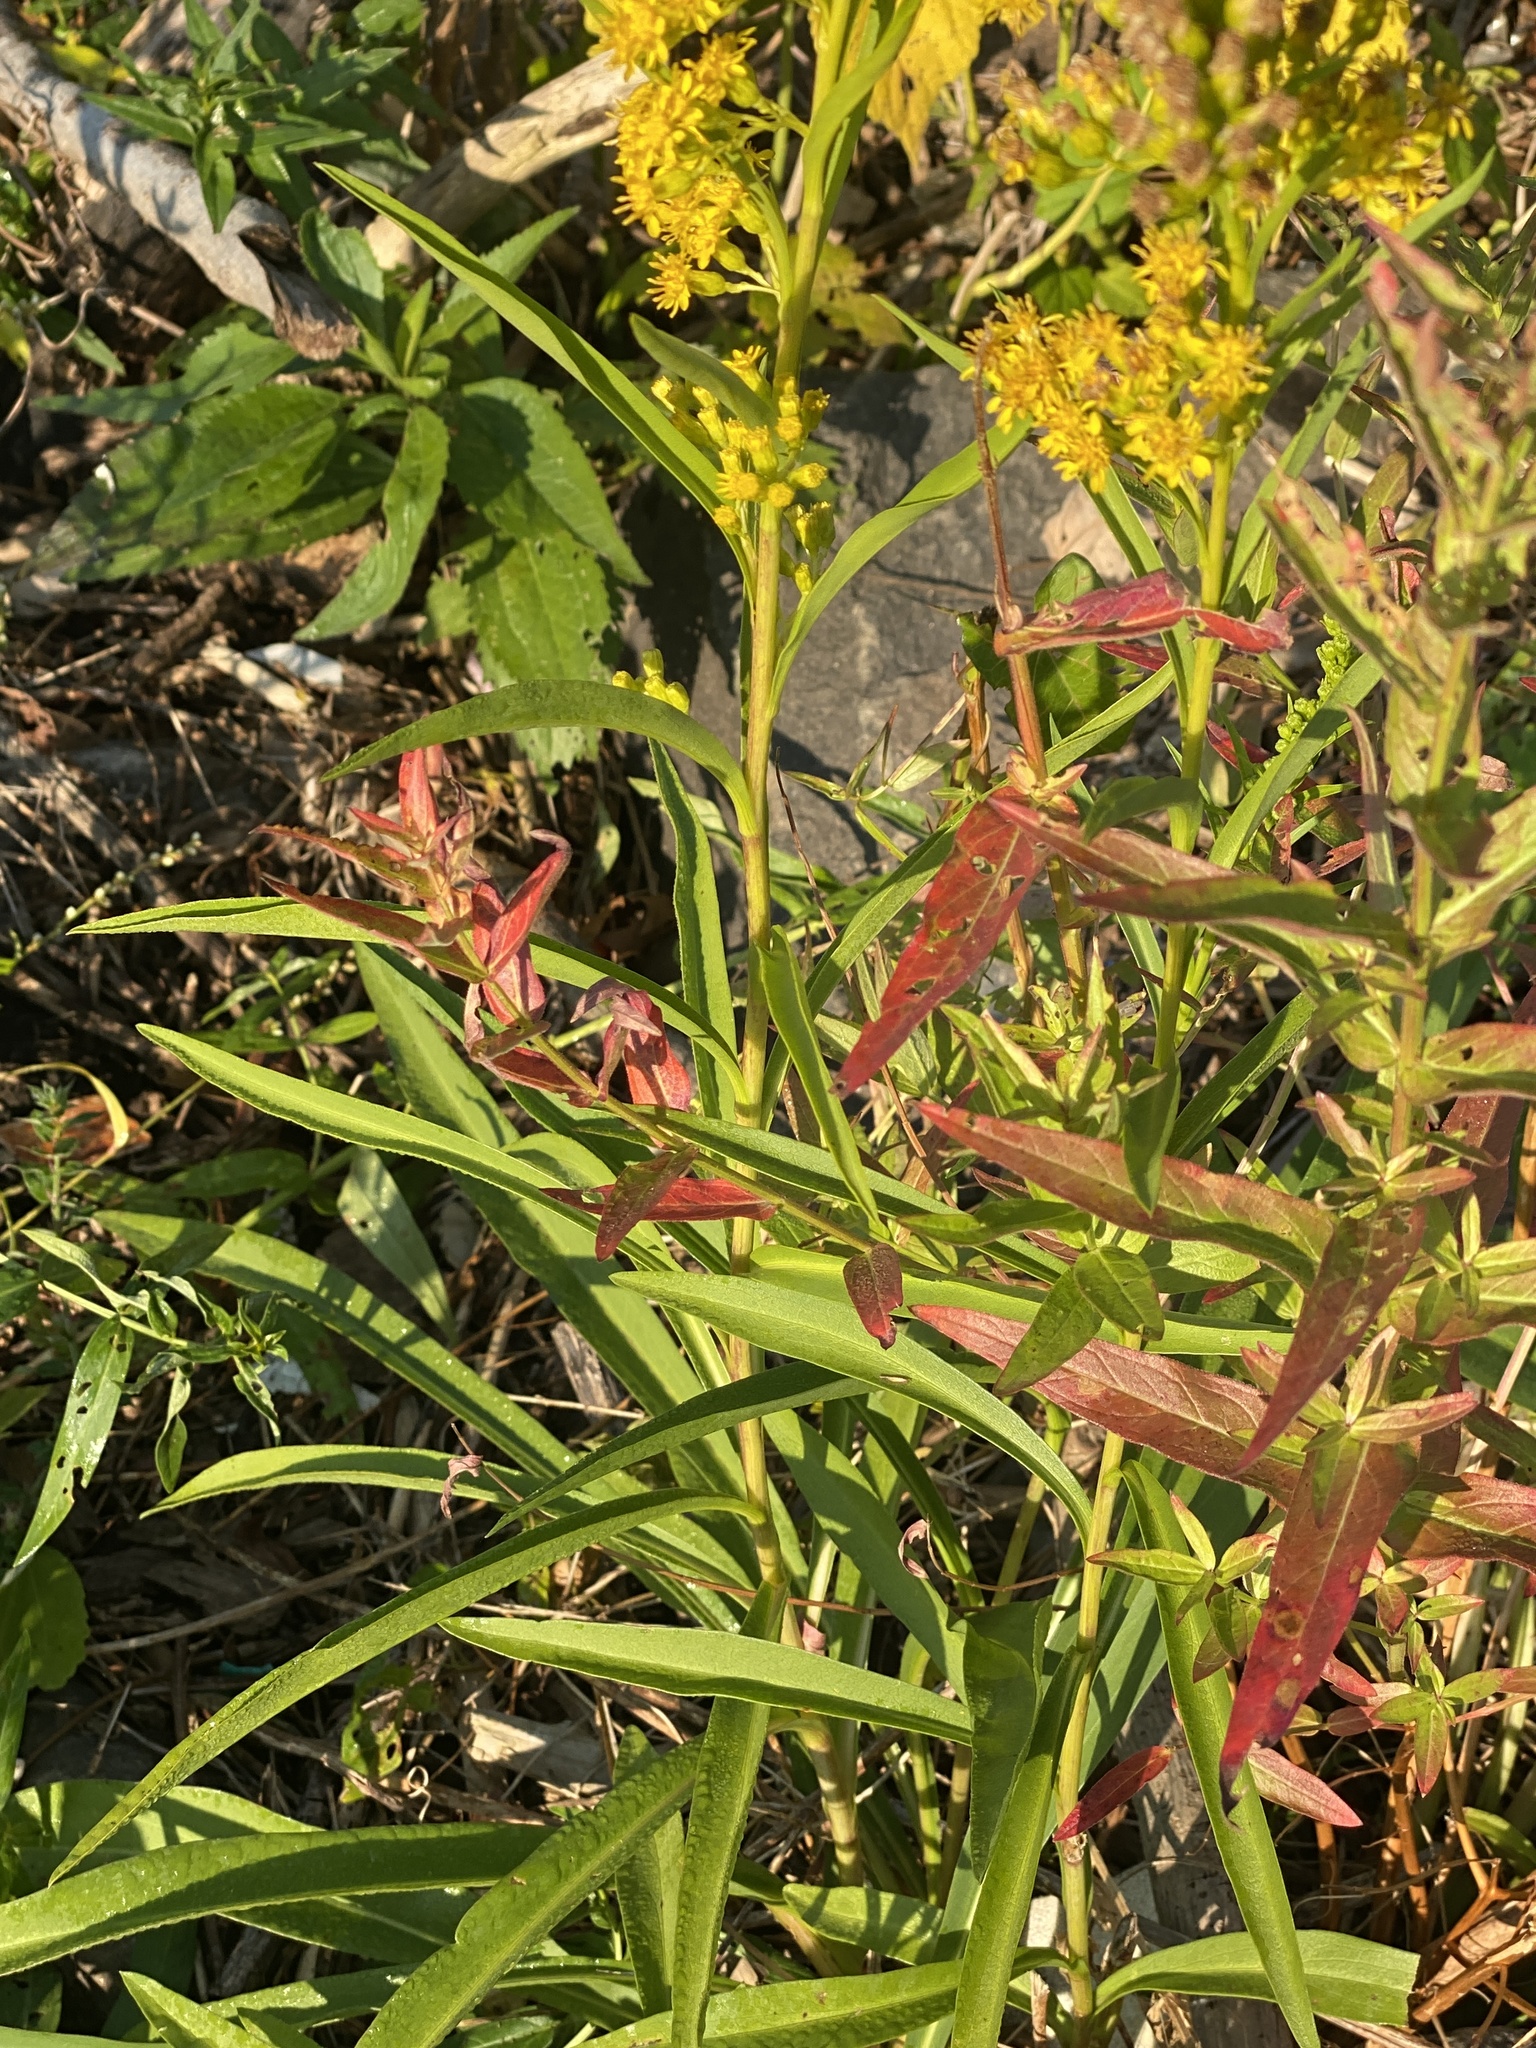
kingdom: Plantae
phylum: Tracheophyta
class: Magnoliopsida
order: Asterales
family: Asteraceae
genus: Solidago
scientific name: Solidago sempervirens
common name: Salt-marsh goldenrod
